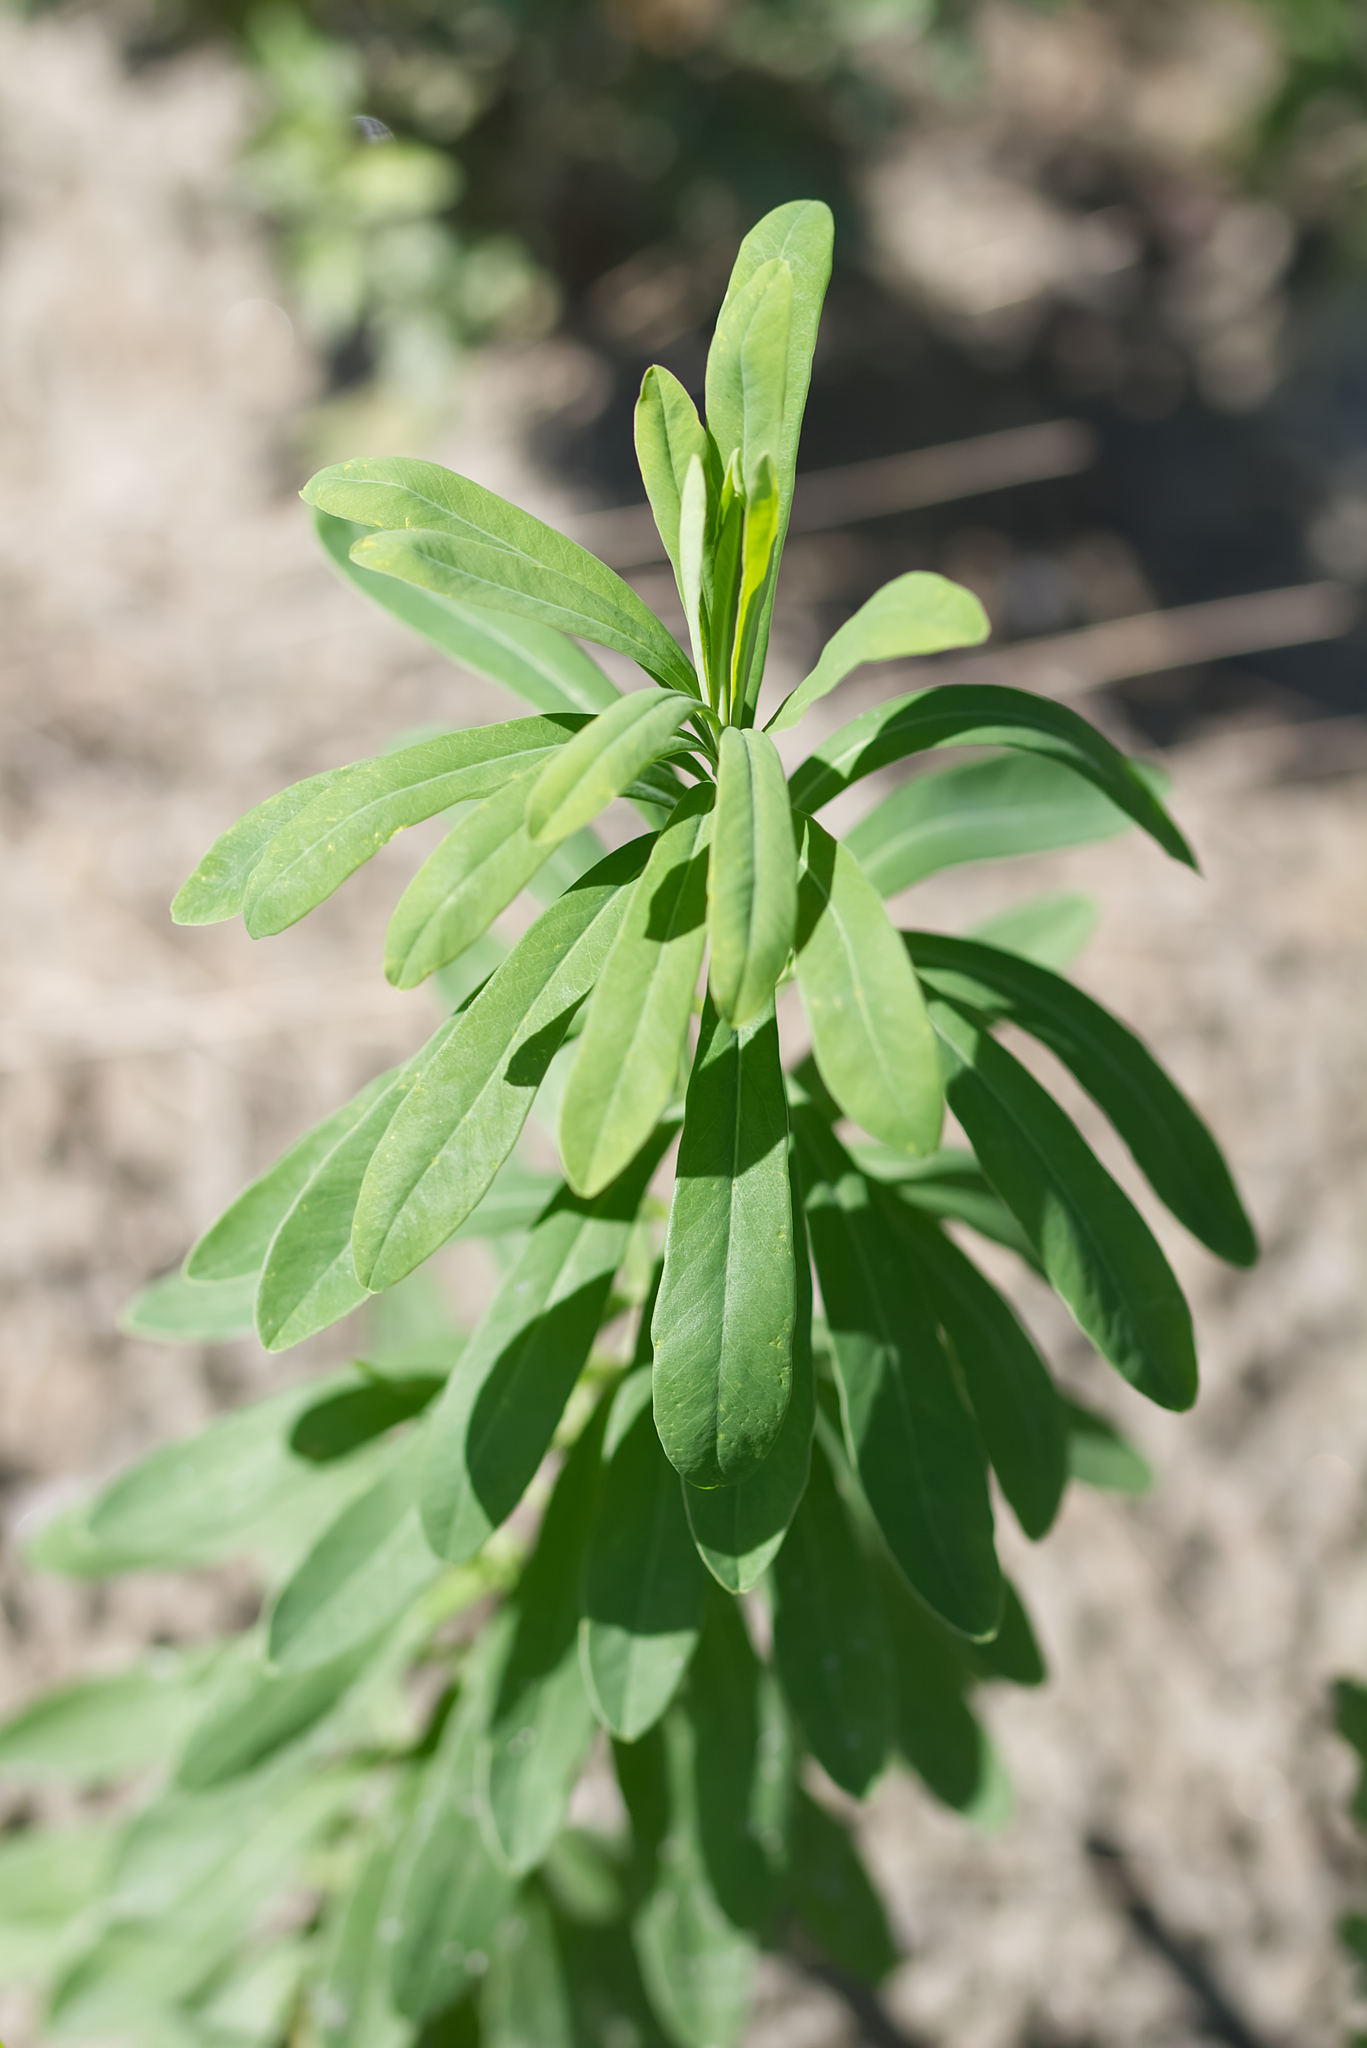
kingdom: Plantae
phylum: Tracheophyta
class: Magnoliopsida
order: Malpighiales
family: Euphorbiaceae
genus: Euphorbia
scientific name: Euphorbia esula
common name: Leafy spurge
